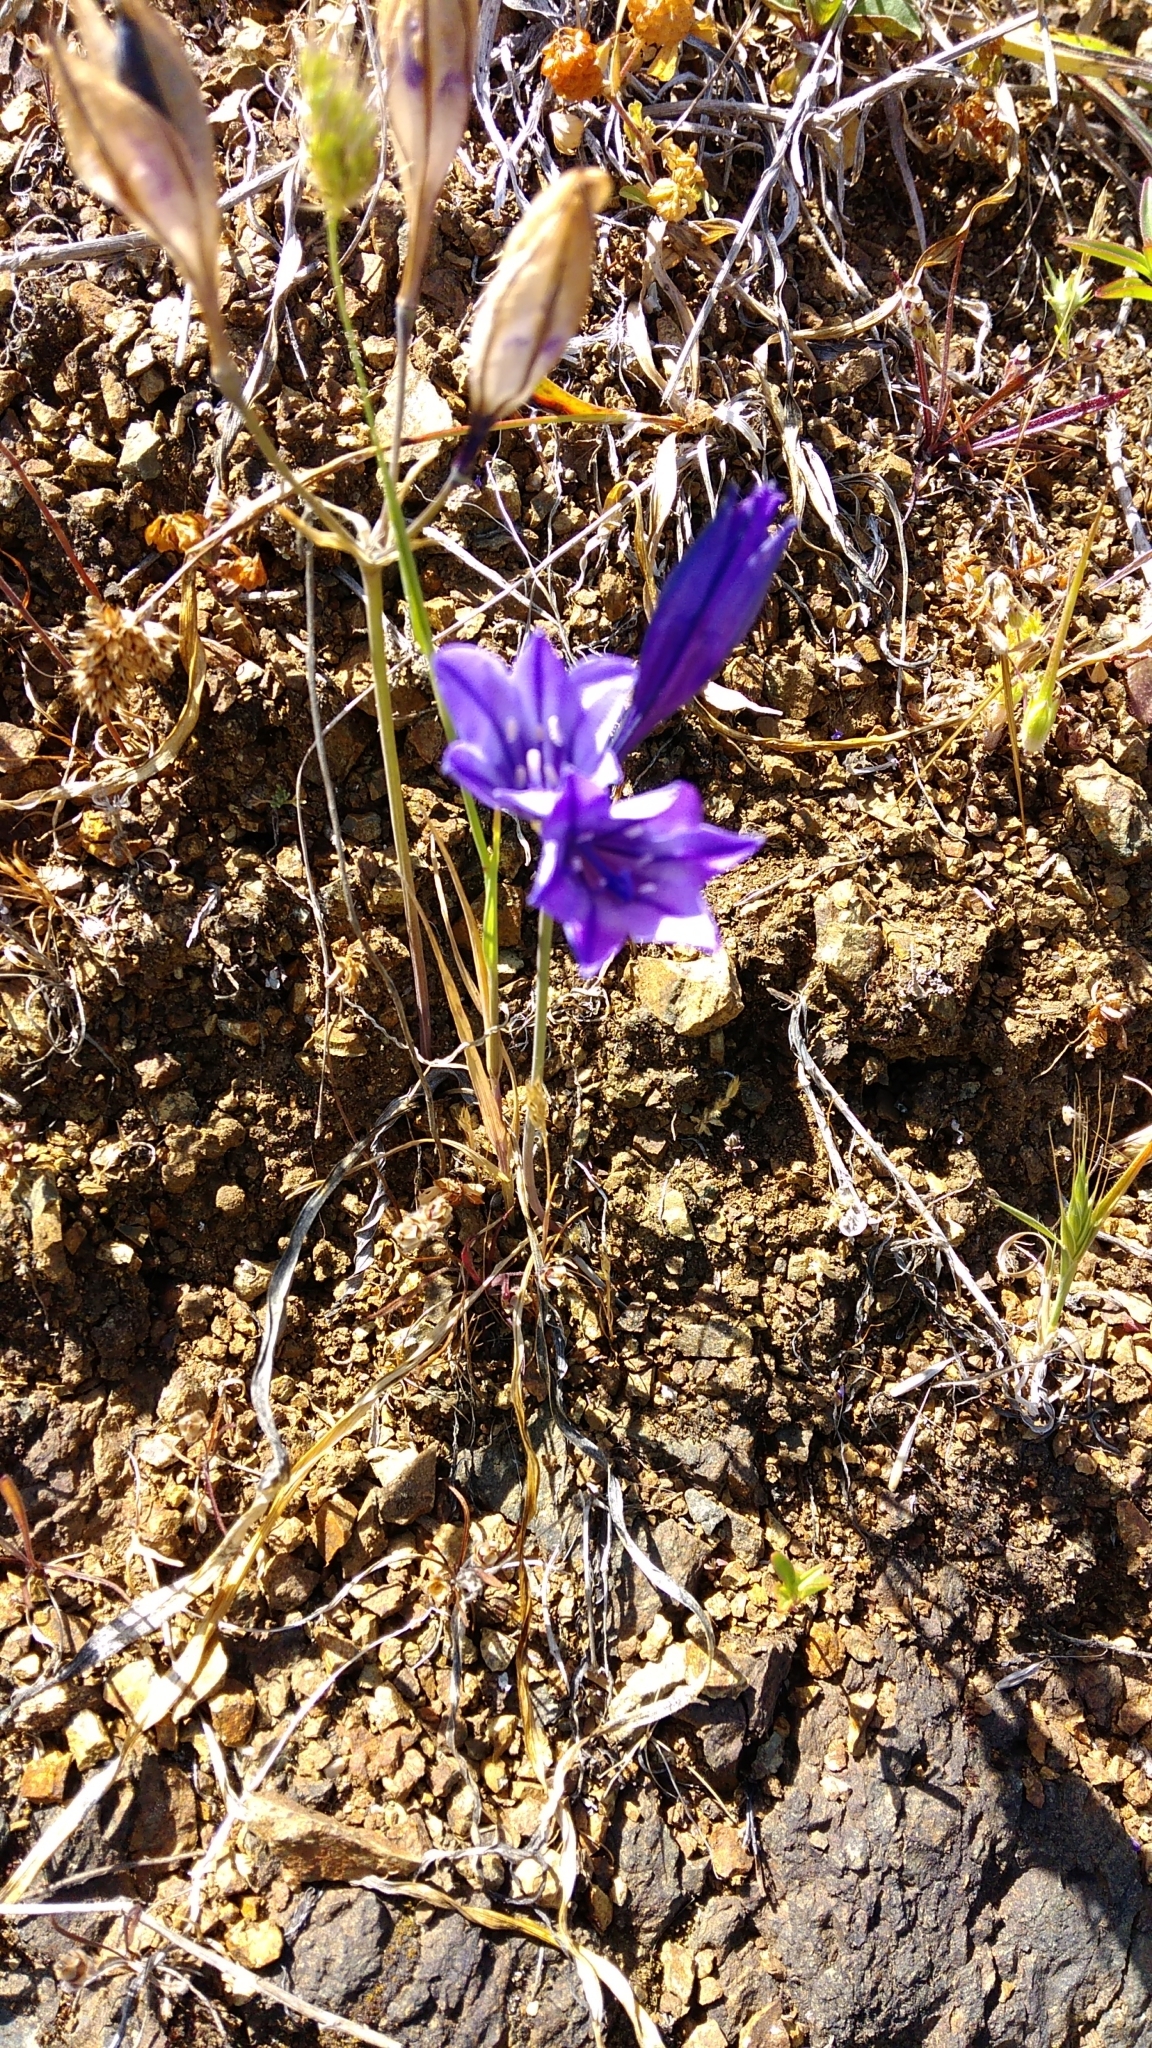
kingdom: Plantae
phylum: Tracheophyta
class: Liliopsida
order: Asparagales
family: Asparagaceae
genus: Triteleia
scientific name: Triteleia laxa
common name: Triplet-lily
